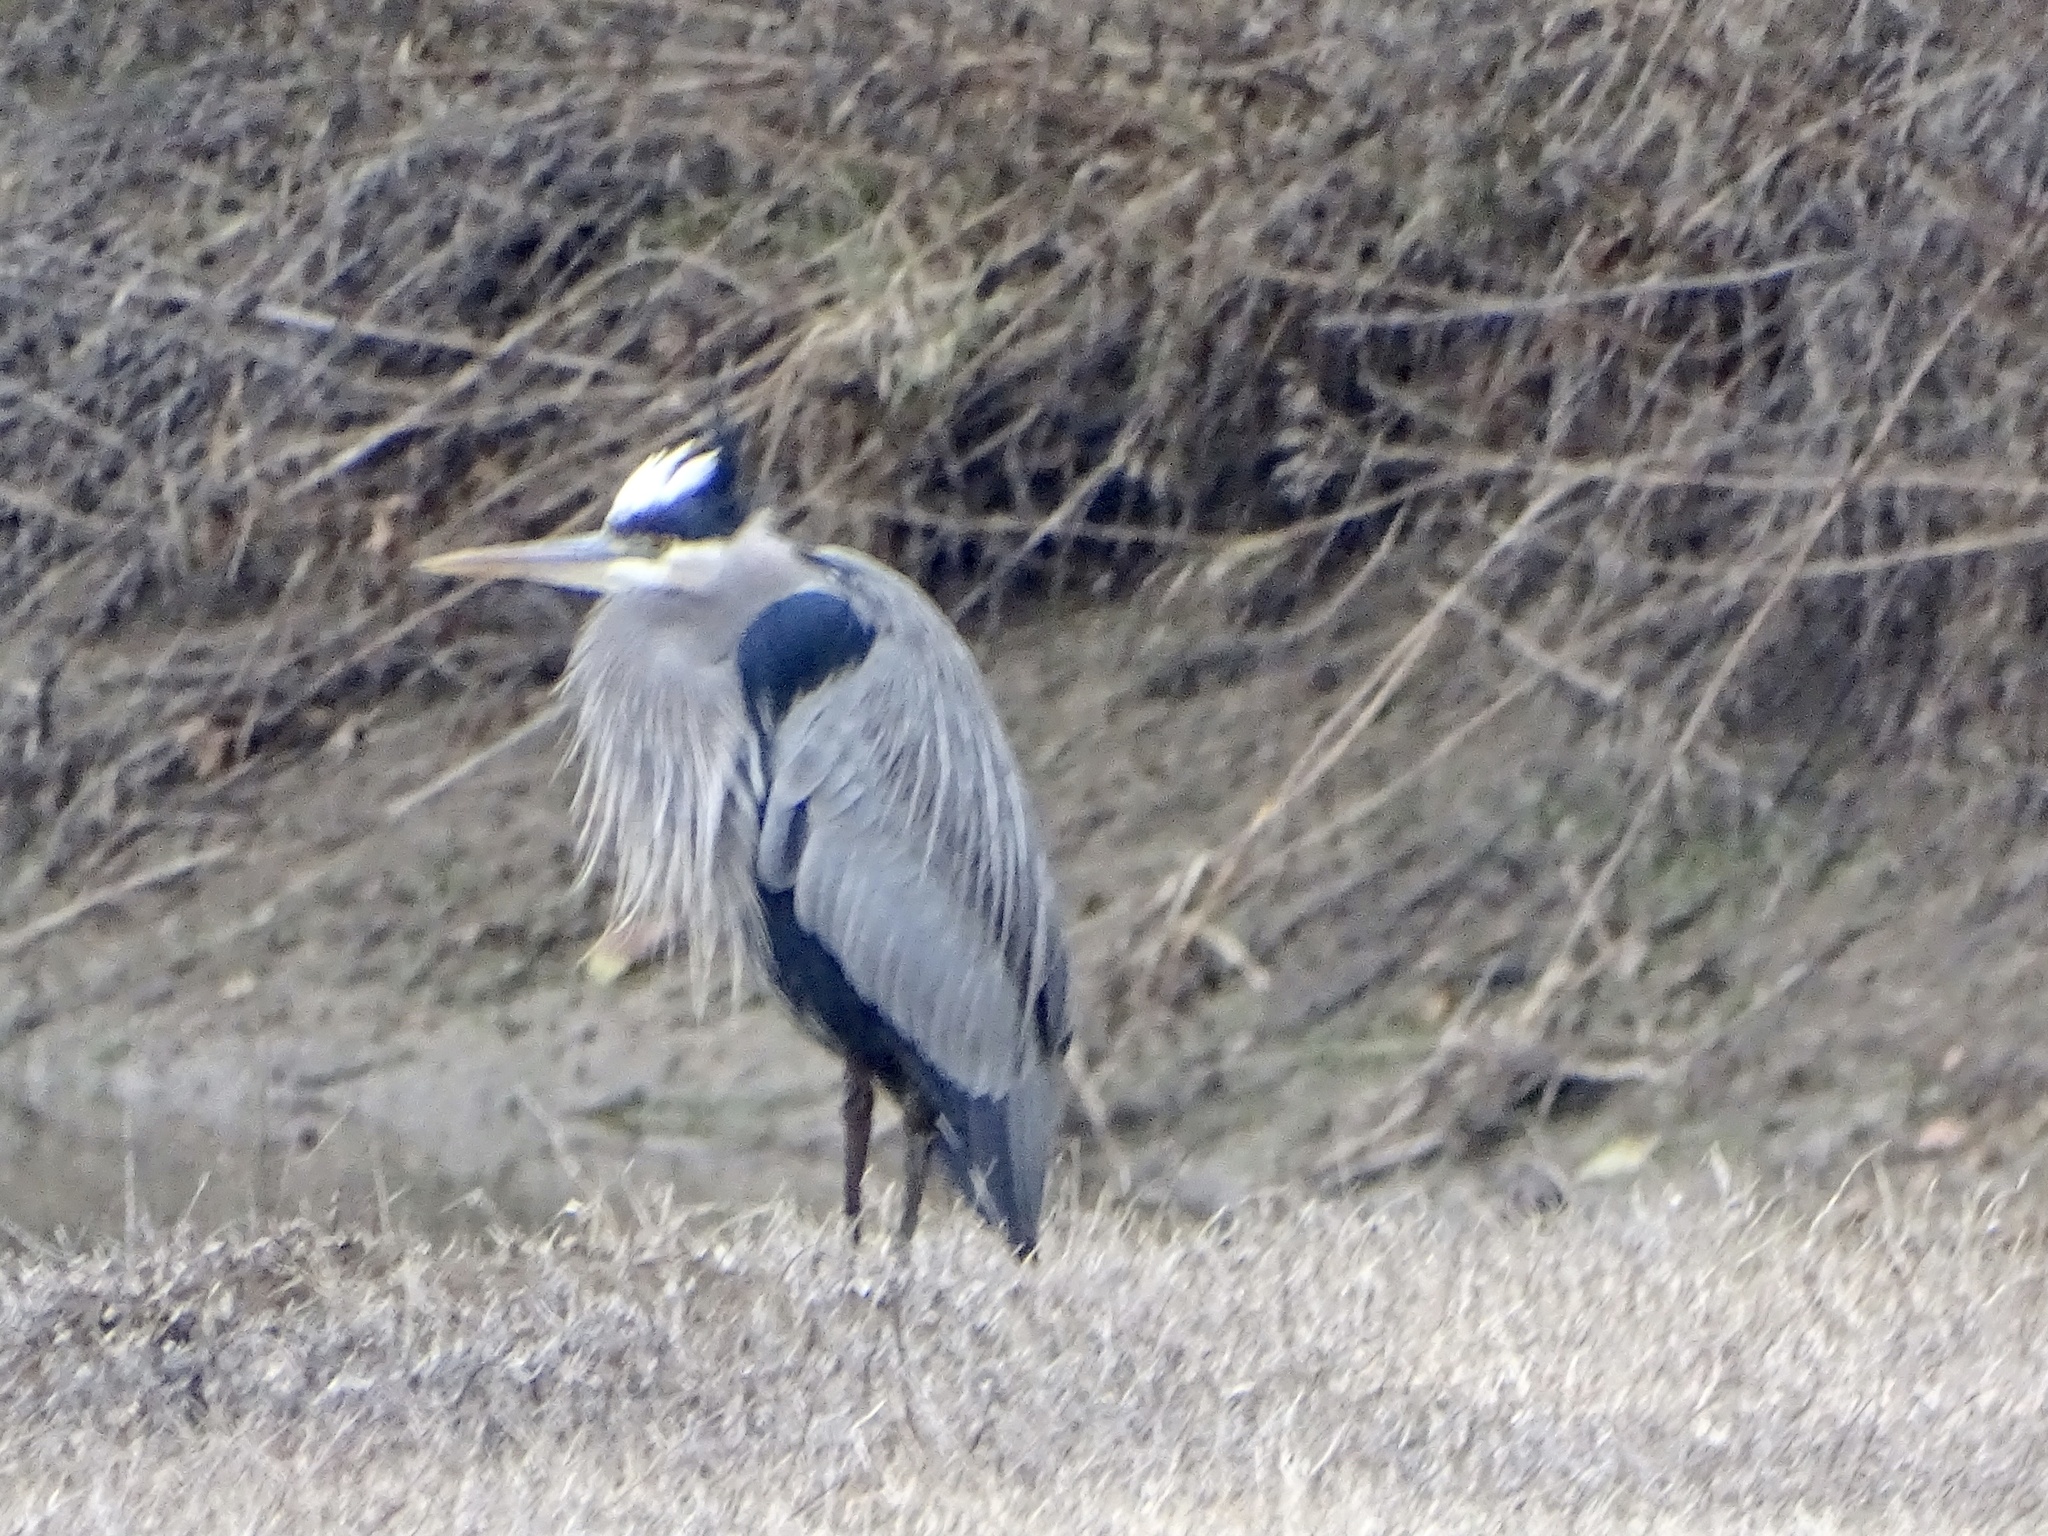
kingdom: Animalia
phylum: Chordata
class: Aves
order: Pelecaniformes
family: Ardeidae
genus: Ardea
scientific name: Ardea herodias
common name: Great blue heron
